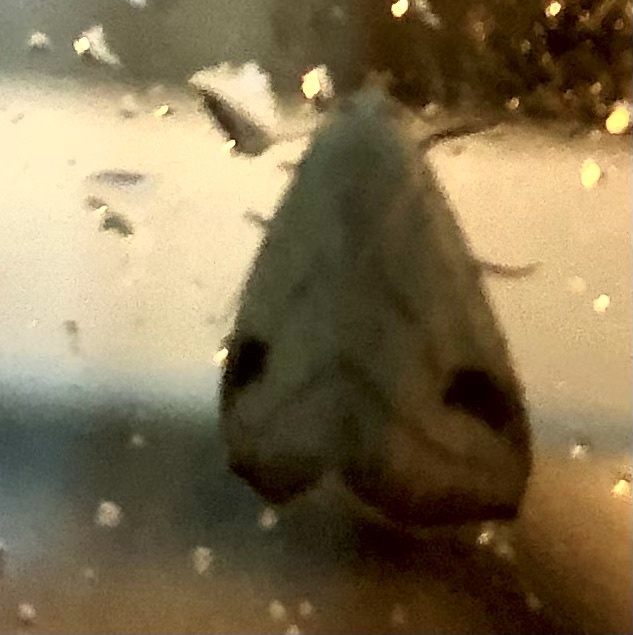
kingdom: Animalia
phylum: Arthropoda
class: Insecta
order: Lepidoptera
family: Erebidae
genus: Rivula
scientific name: Rivula propinqualis
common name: Spotted grass moth
